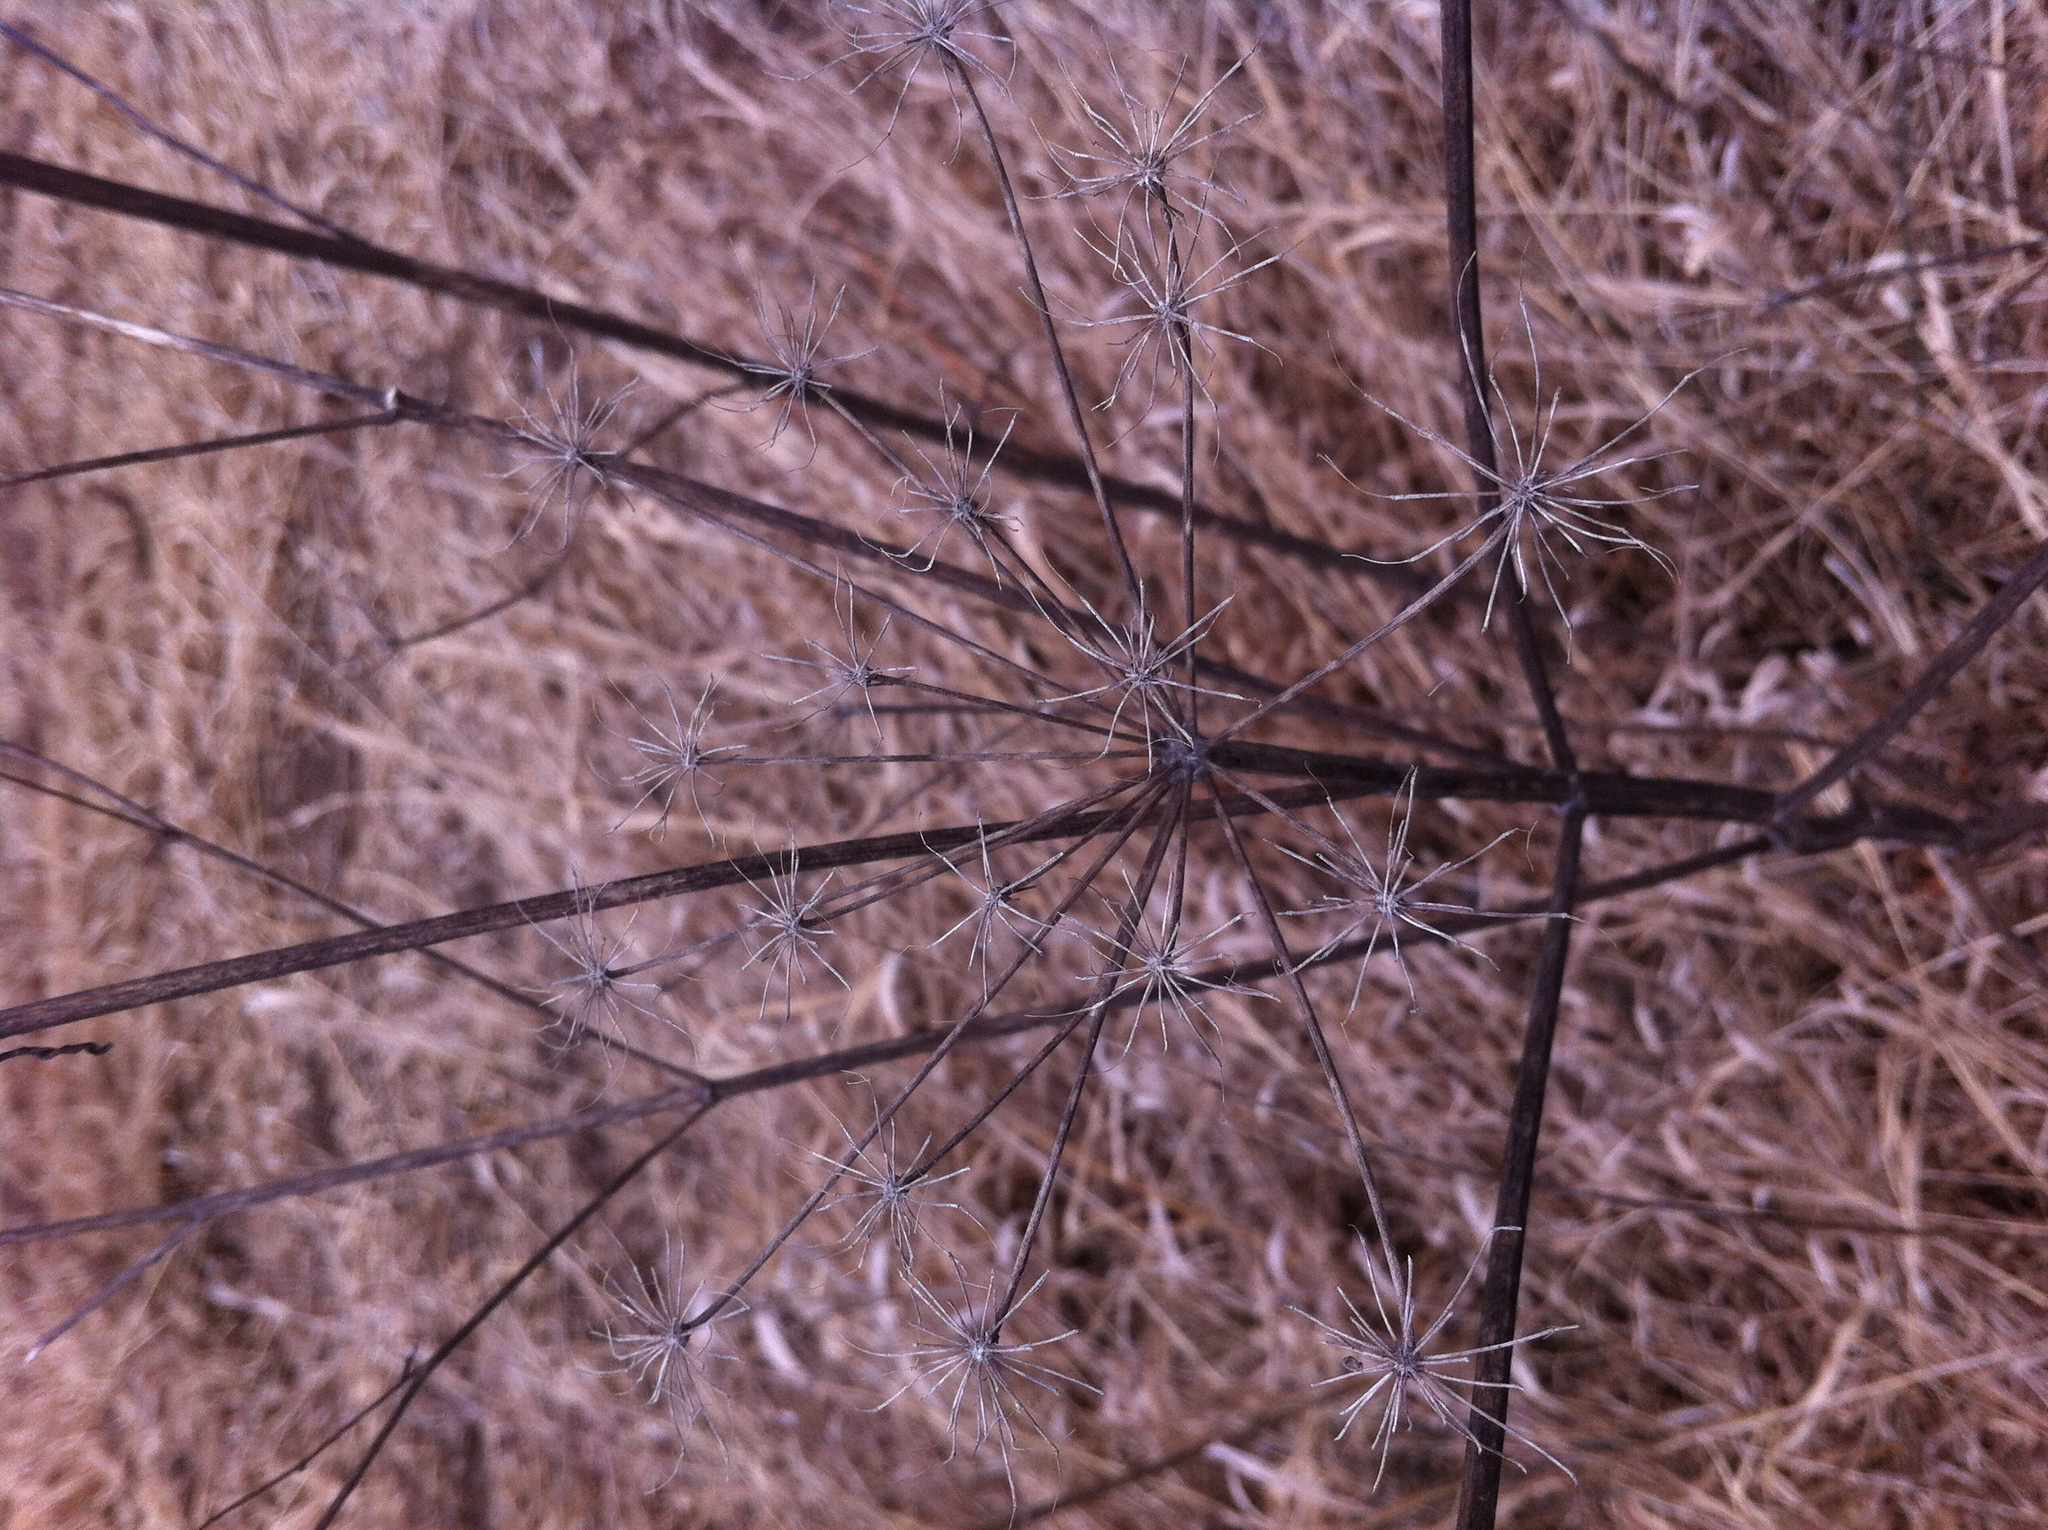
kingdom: Plantae
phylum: Tracheophyta
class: Magnoliopsida
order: Apiales
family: Apiaceae
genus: Pastinaca
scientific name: Pastinaca sativa
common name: Wild parsnip
